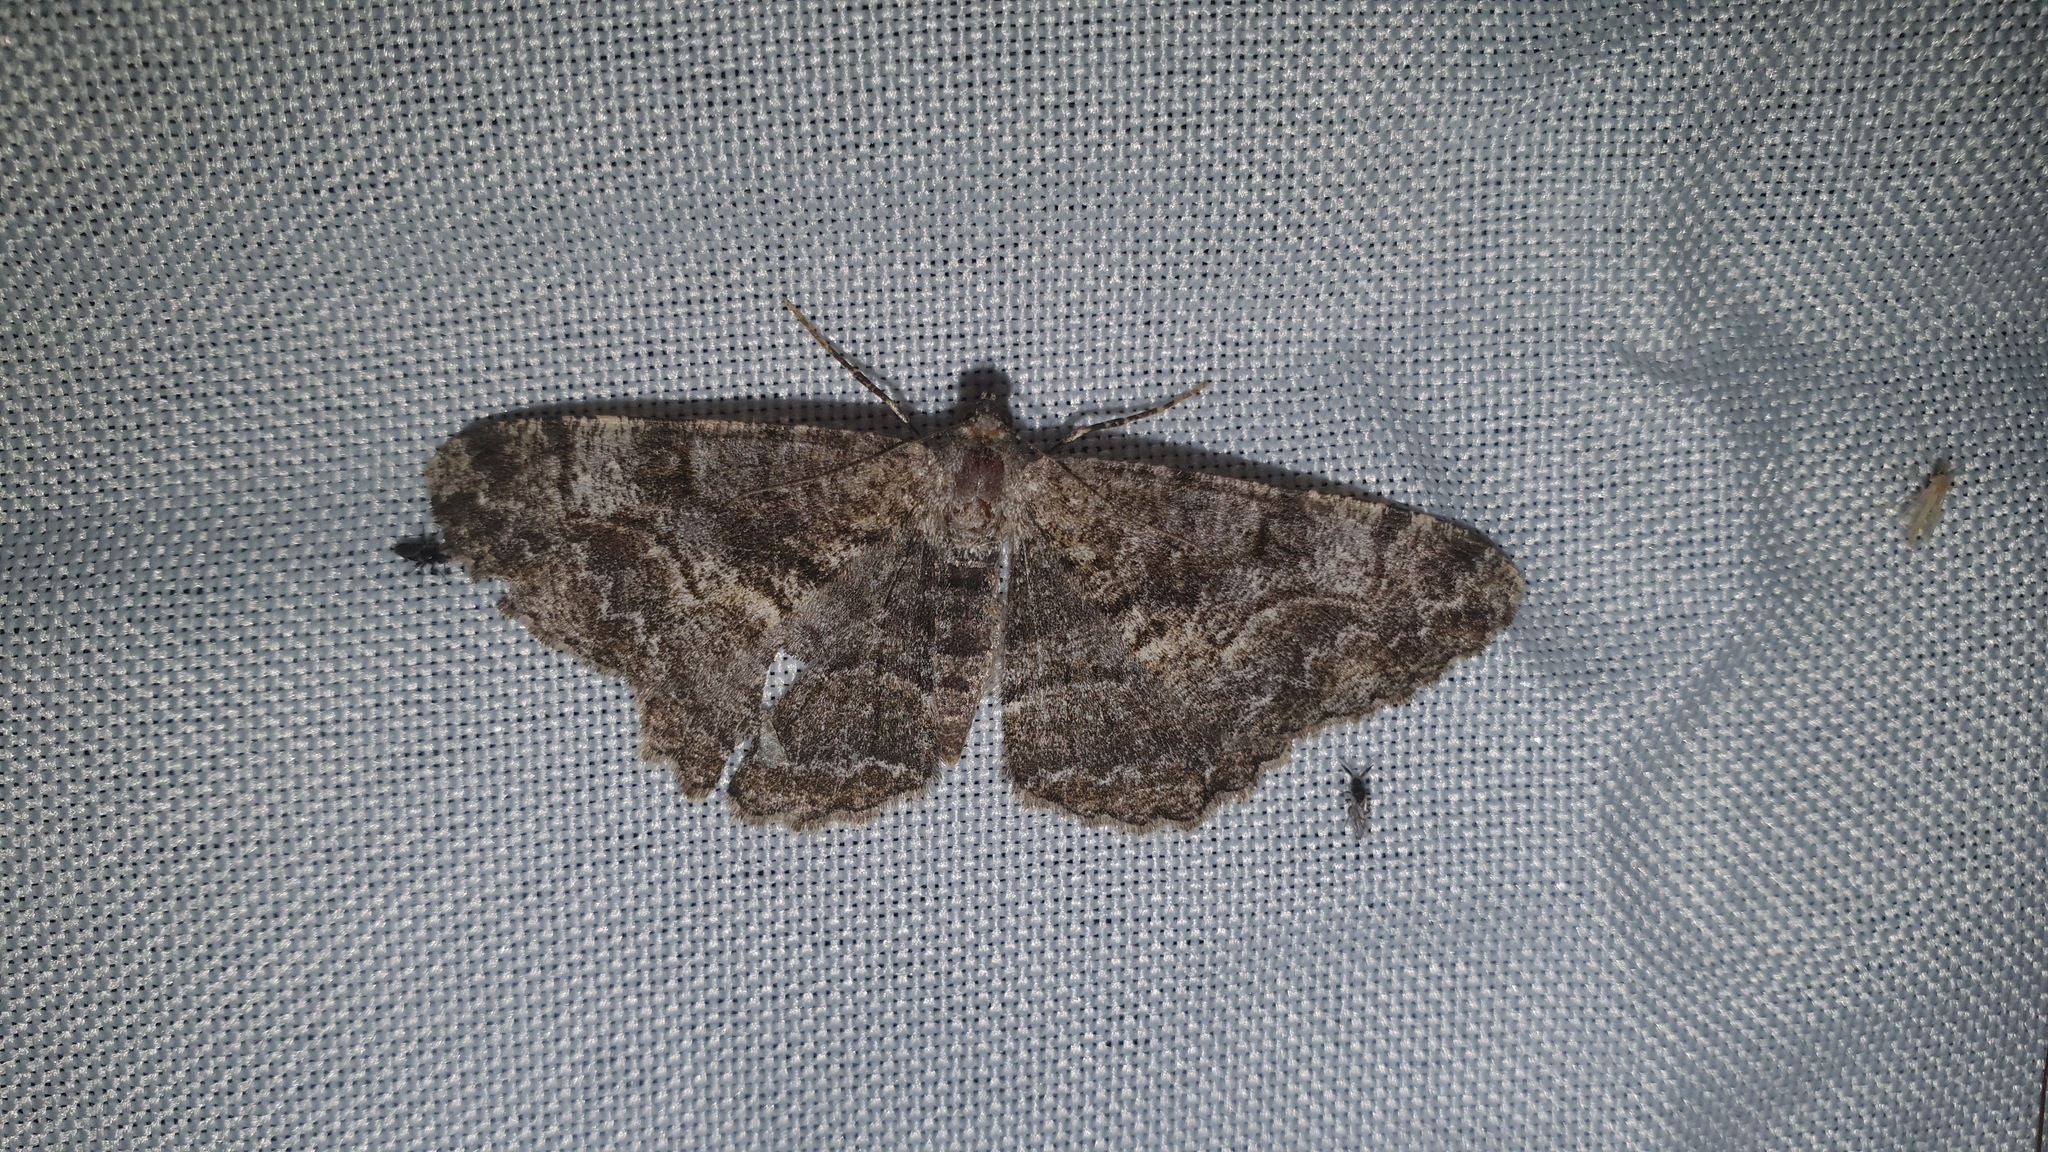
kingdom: Animalia
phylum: Arthropoda
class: Insecta
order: Lepidoptera
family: Geometridae
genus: Alcis
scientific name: Alcis repandata
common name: Mottled beauty
